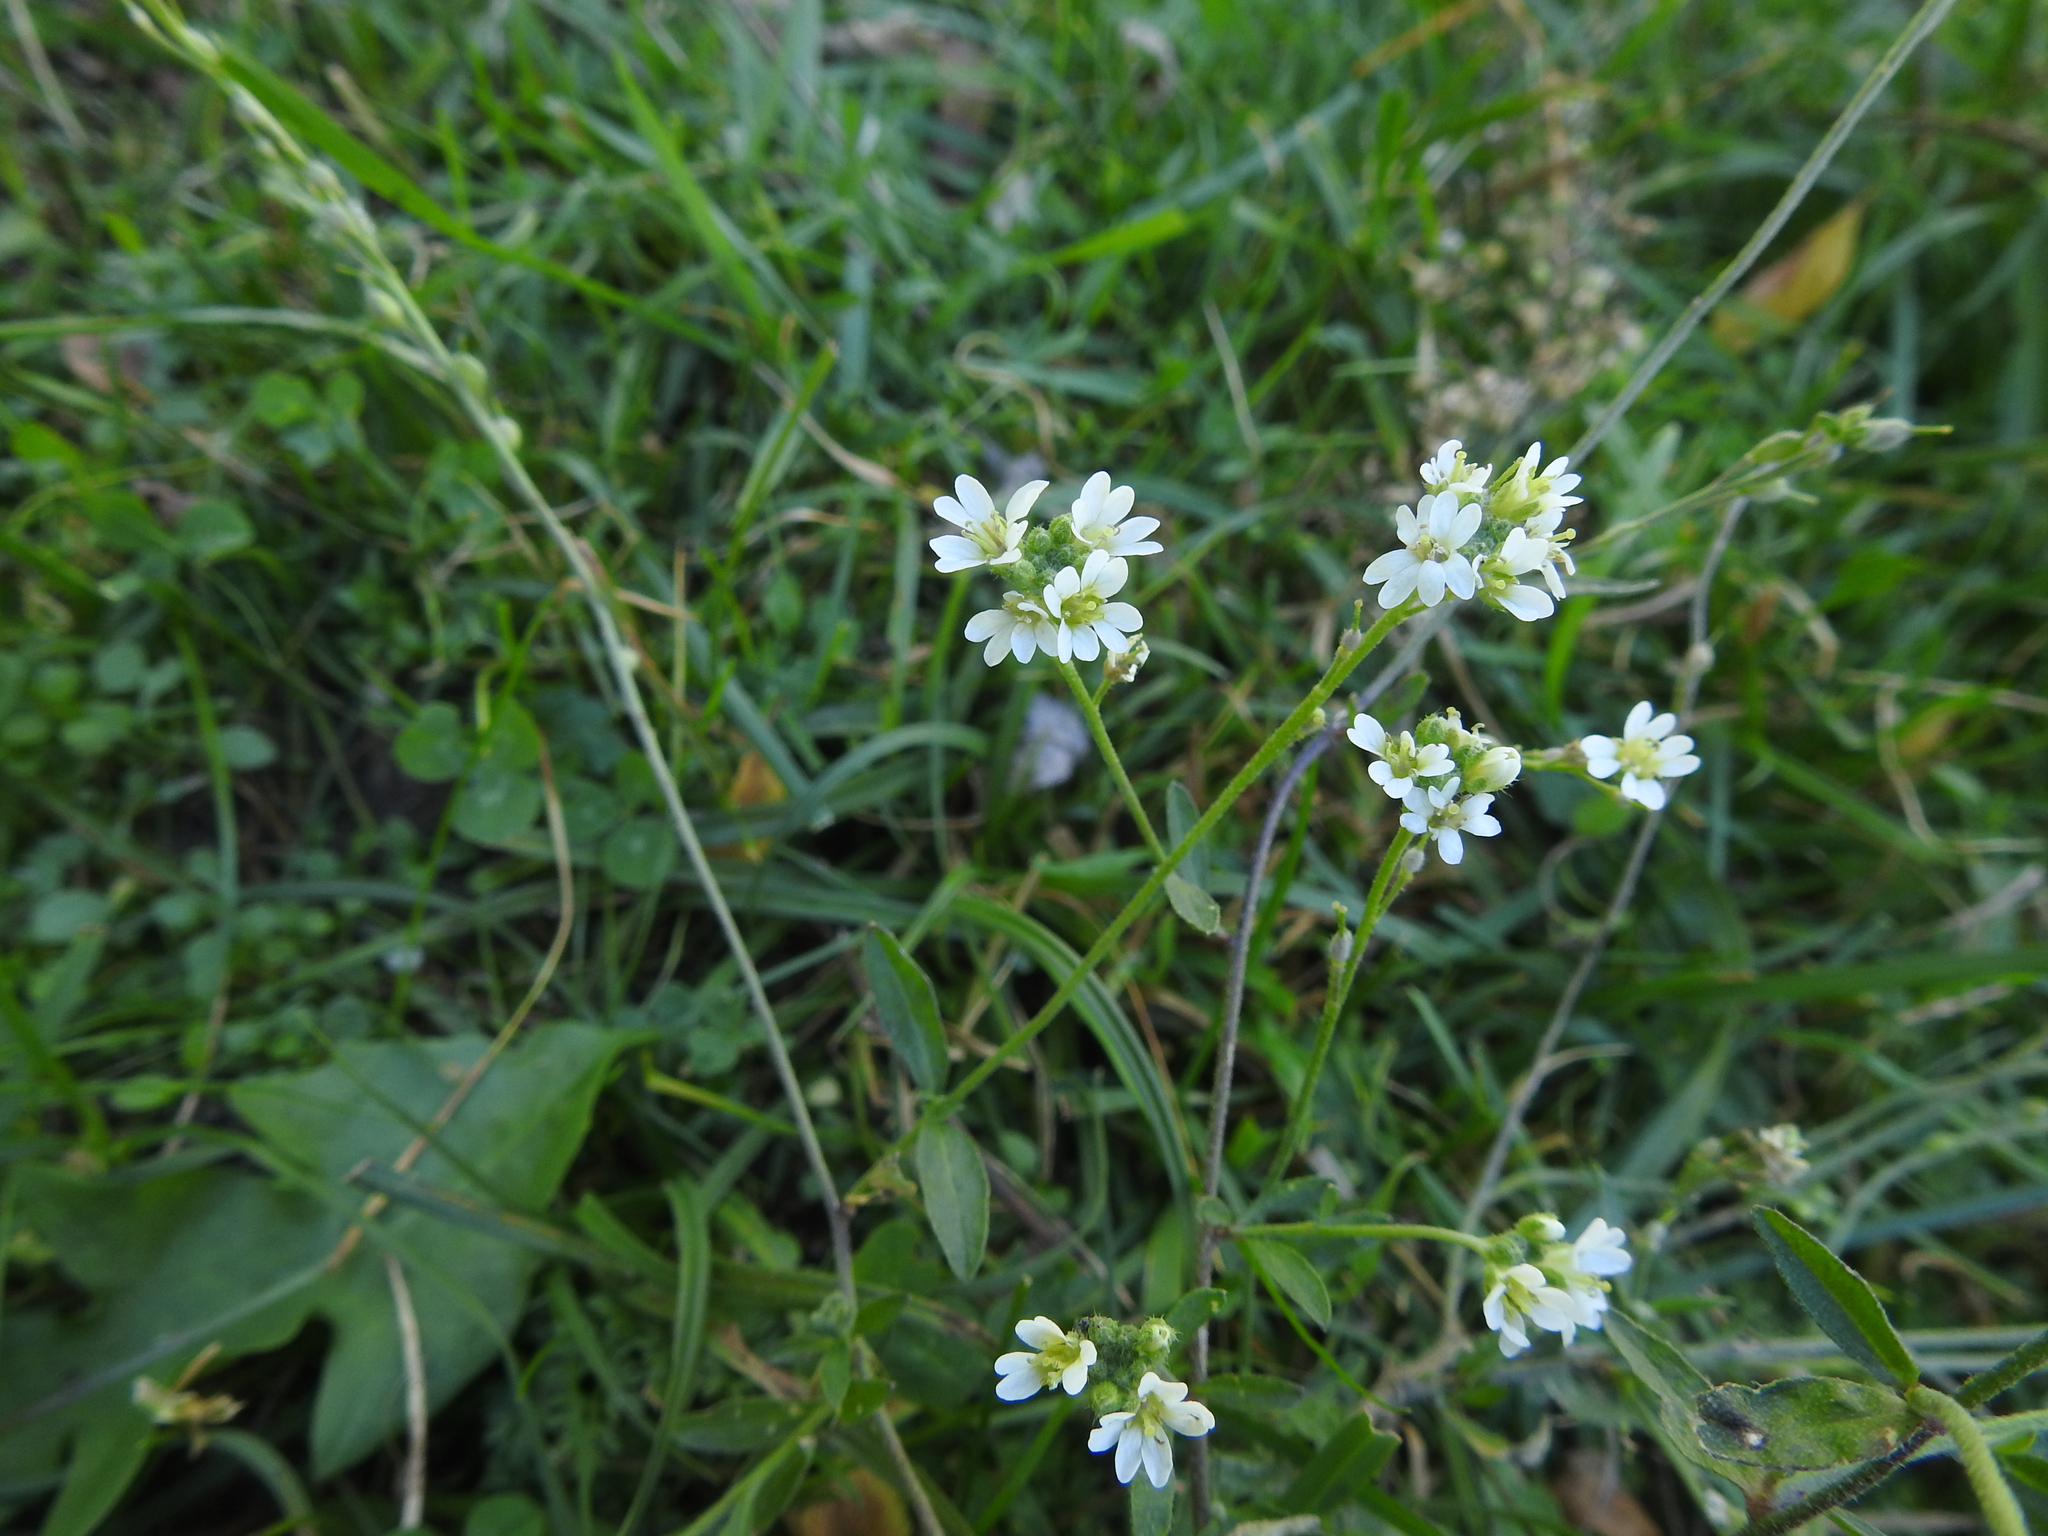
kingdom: Plantae
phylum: Tracheophyta
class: Magnoliopsida
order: Brassicales
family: Brassicaceae
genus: Berteroa
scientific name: Berteroa incana
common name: Hoary alison
